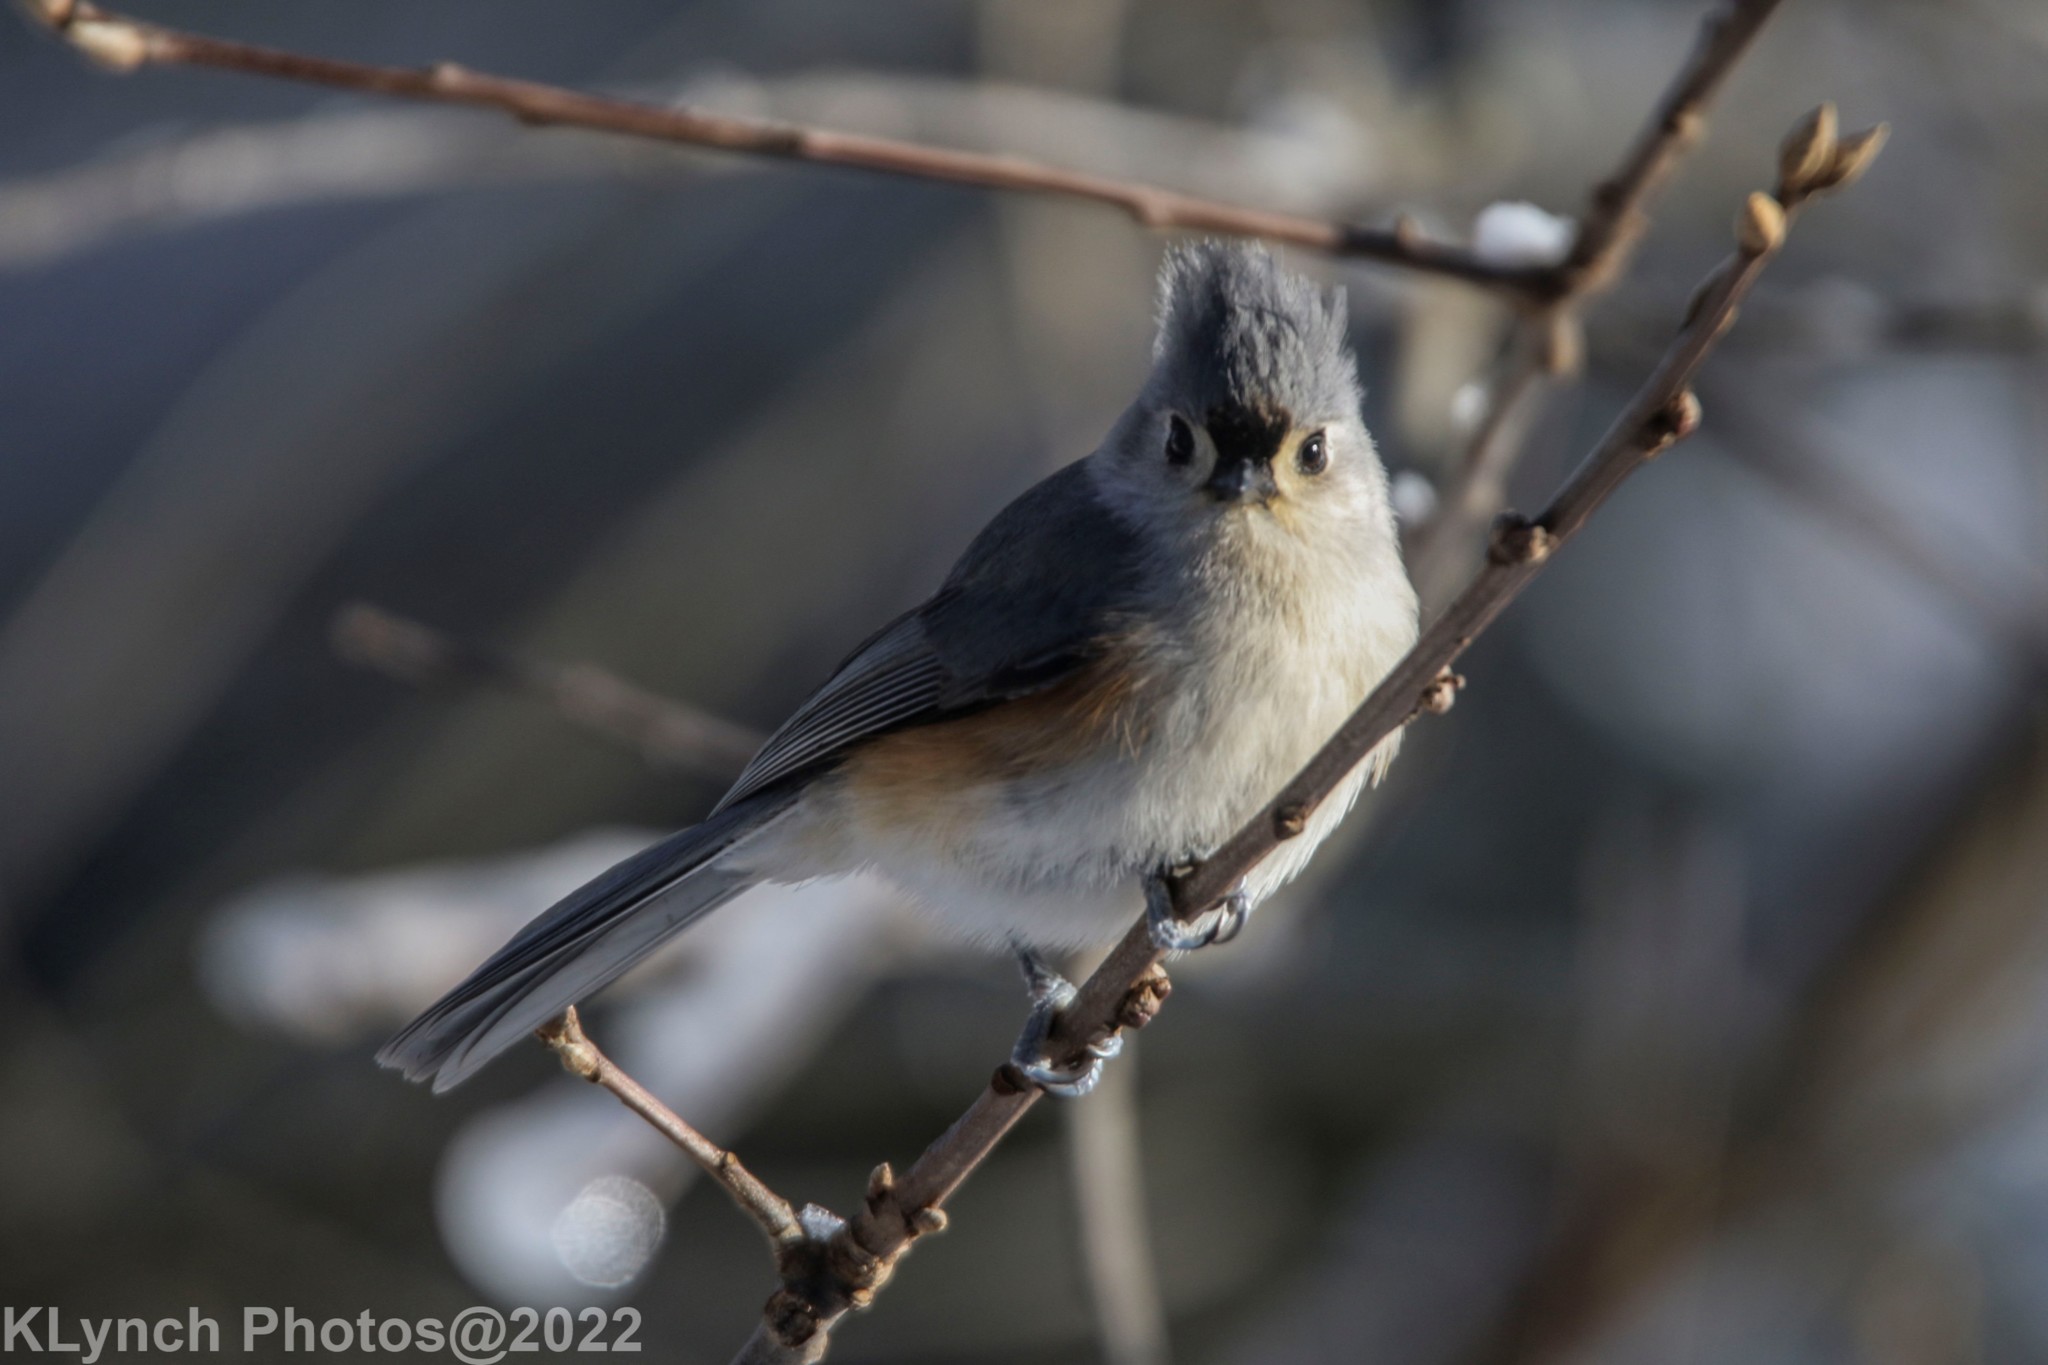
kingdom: Animalia
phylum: Chordata
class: Aves
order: Passeriformes
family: Paridae
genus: Baeolophus
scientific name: Baeolophus bicolor
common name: Tufted titmouse
